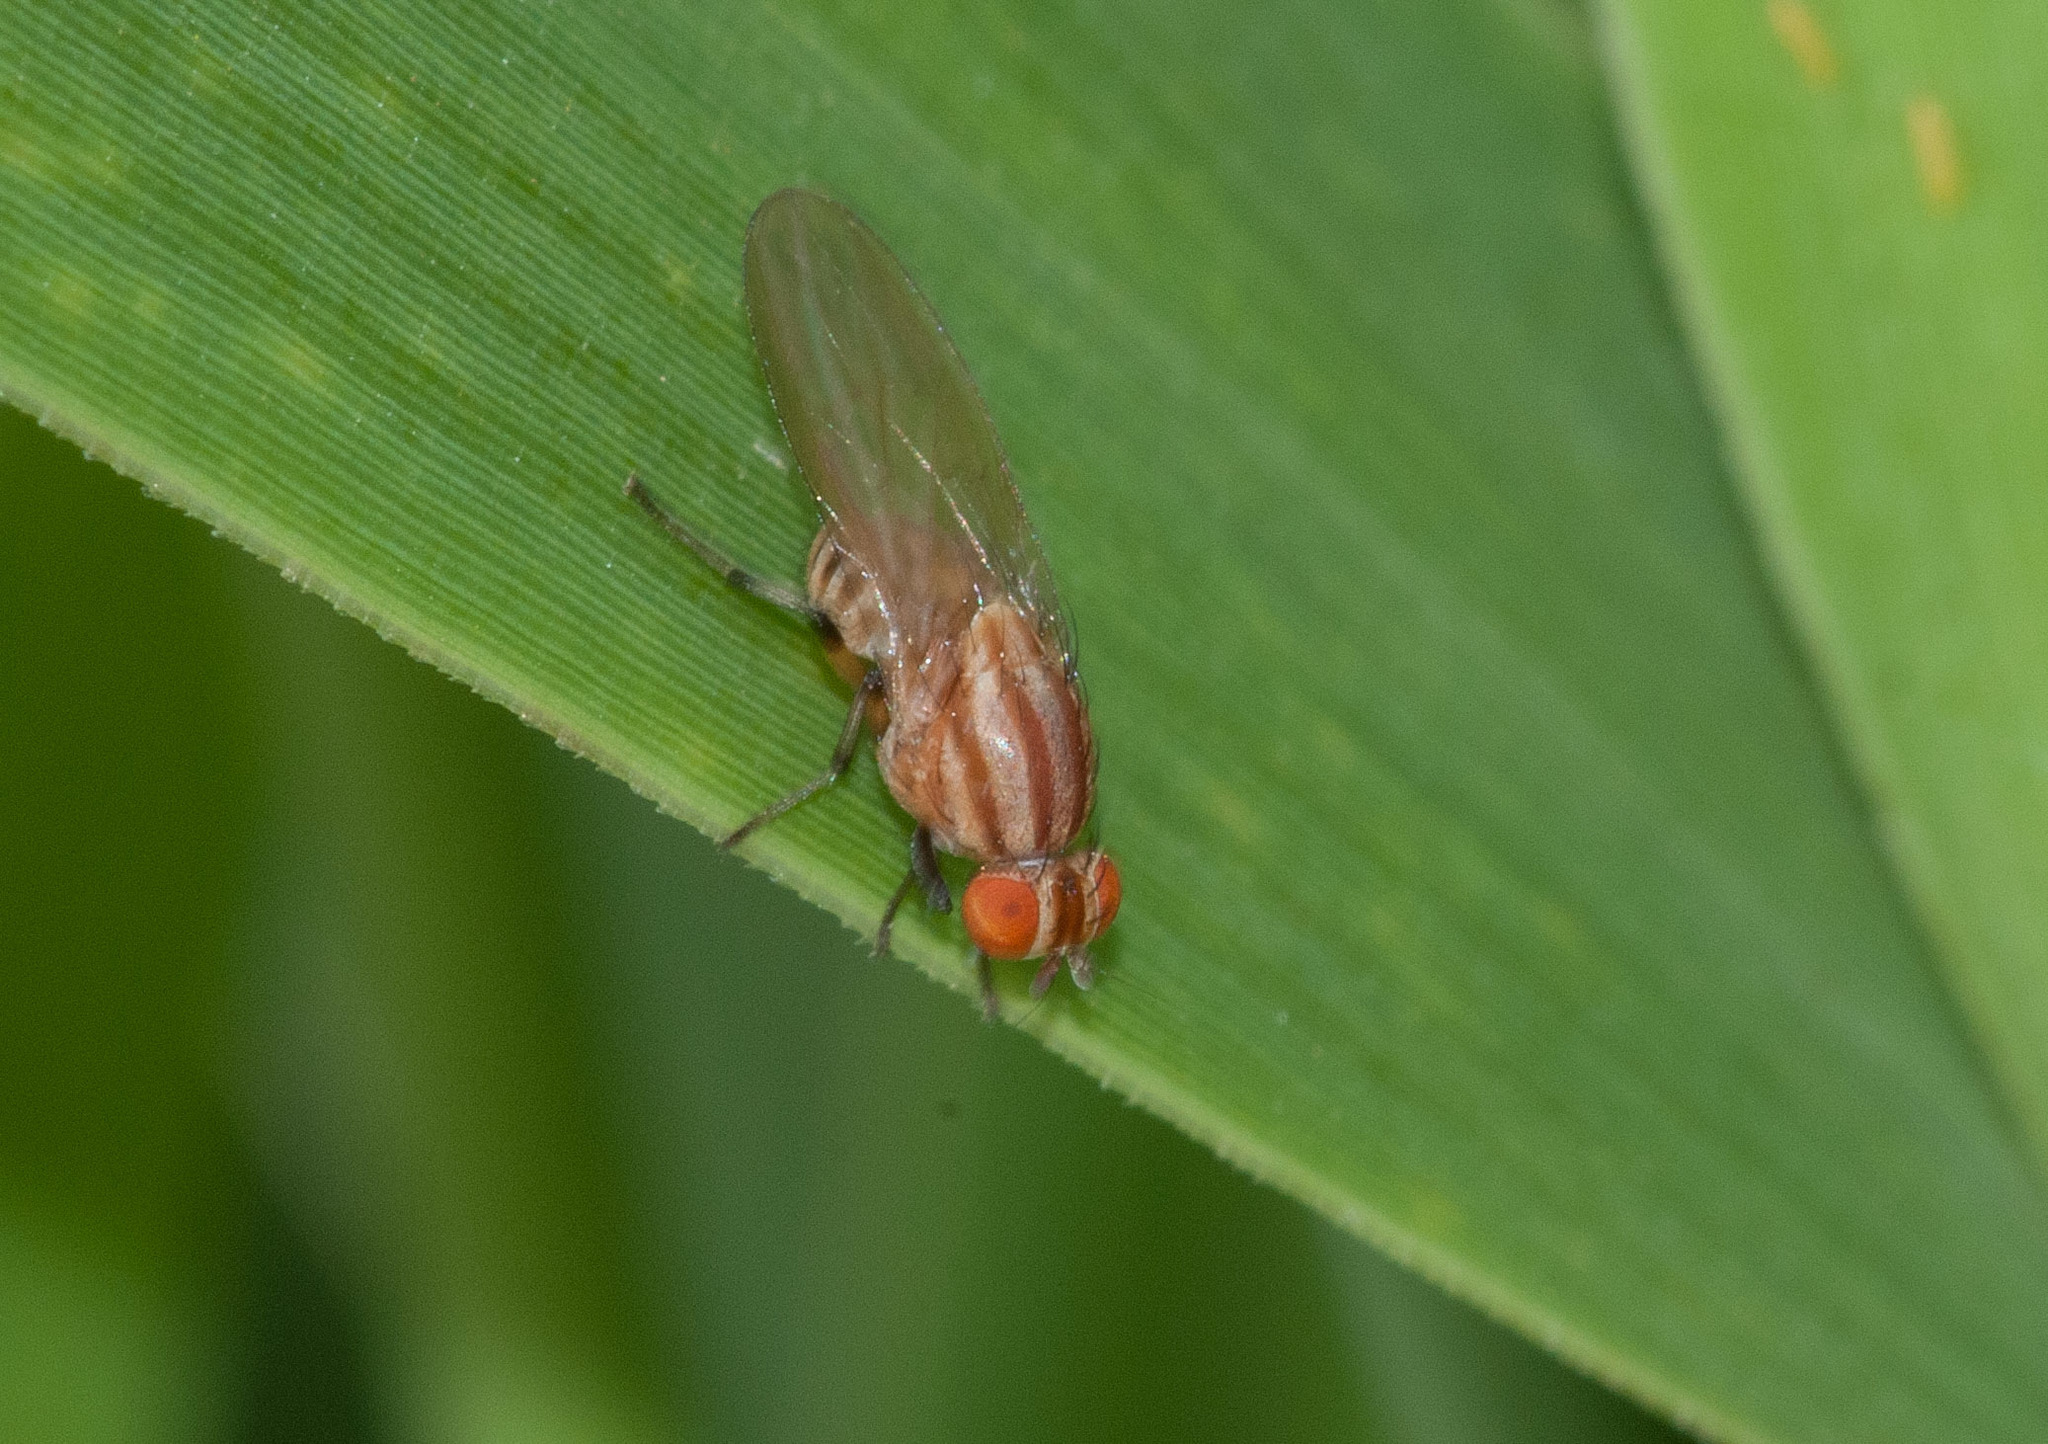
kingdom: Animalia
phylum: Arthropoda
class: Insecta
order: Diptera
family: Lauxaniidae
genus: Sapromyza
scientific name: Sapromyza brunneovittata
